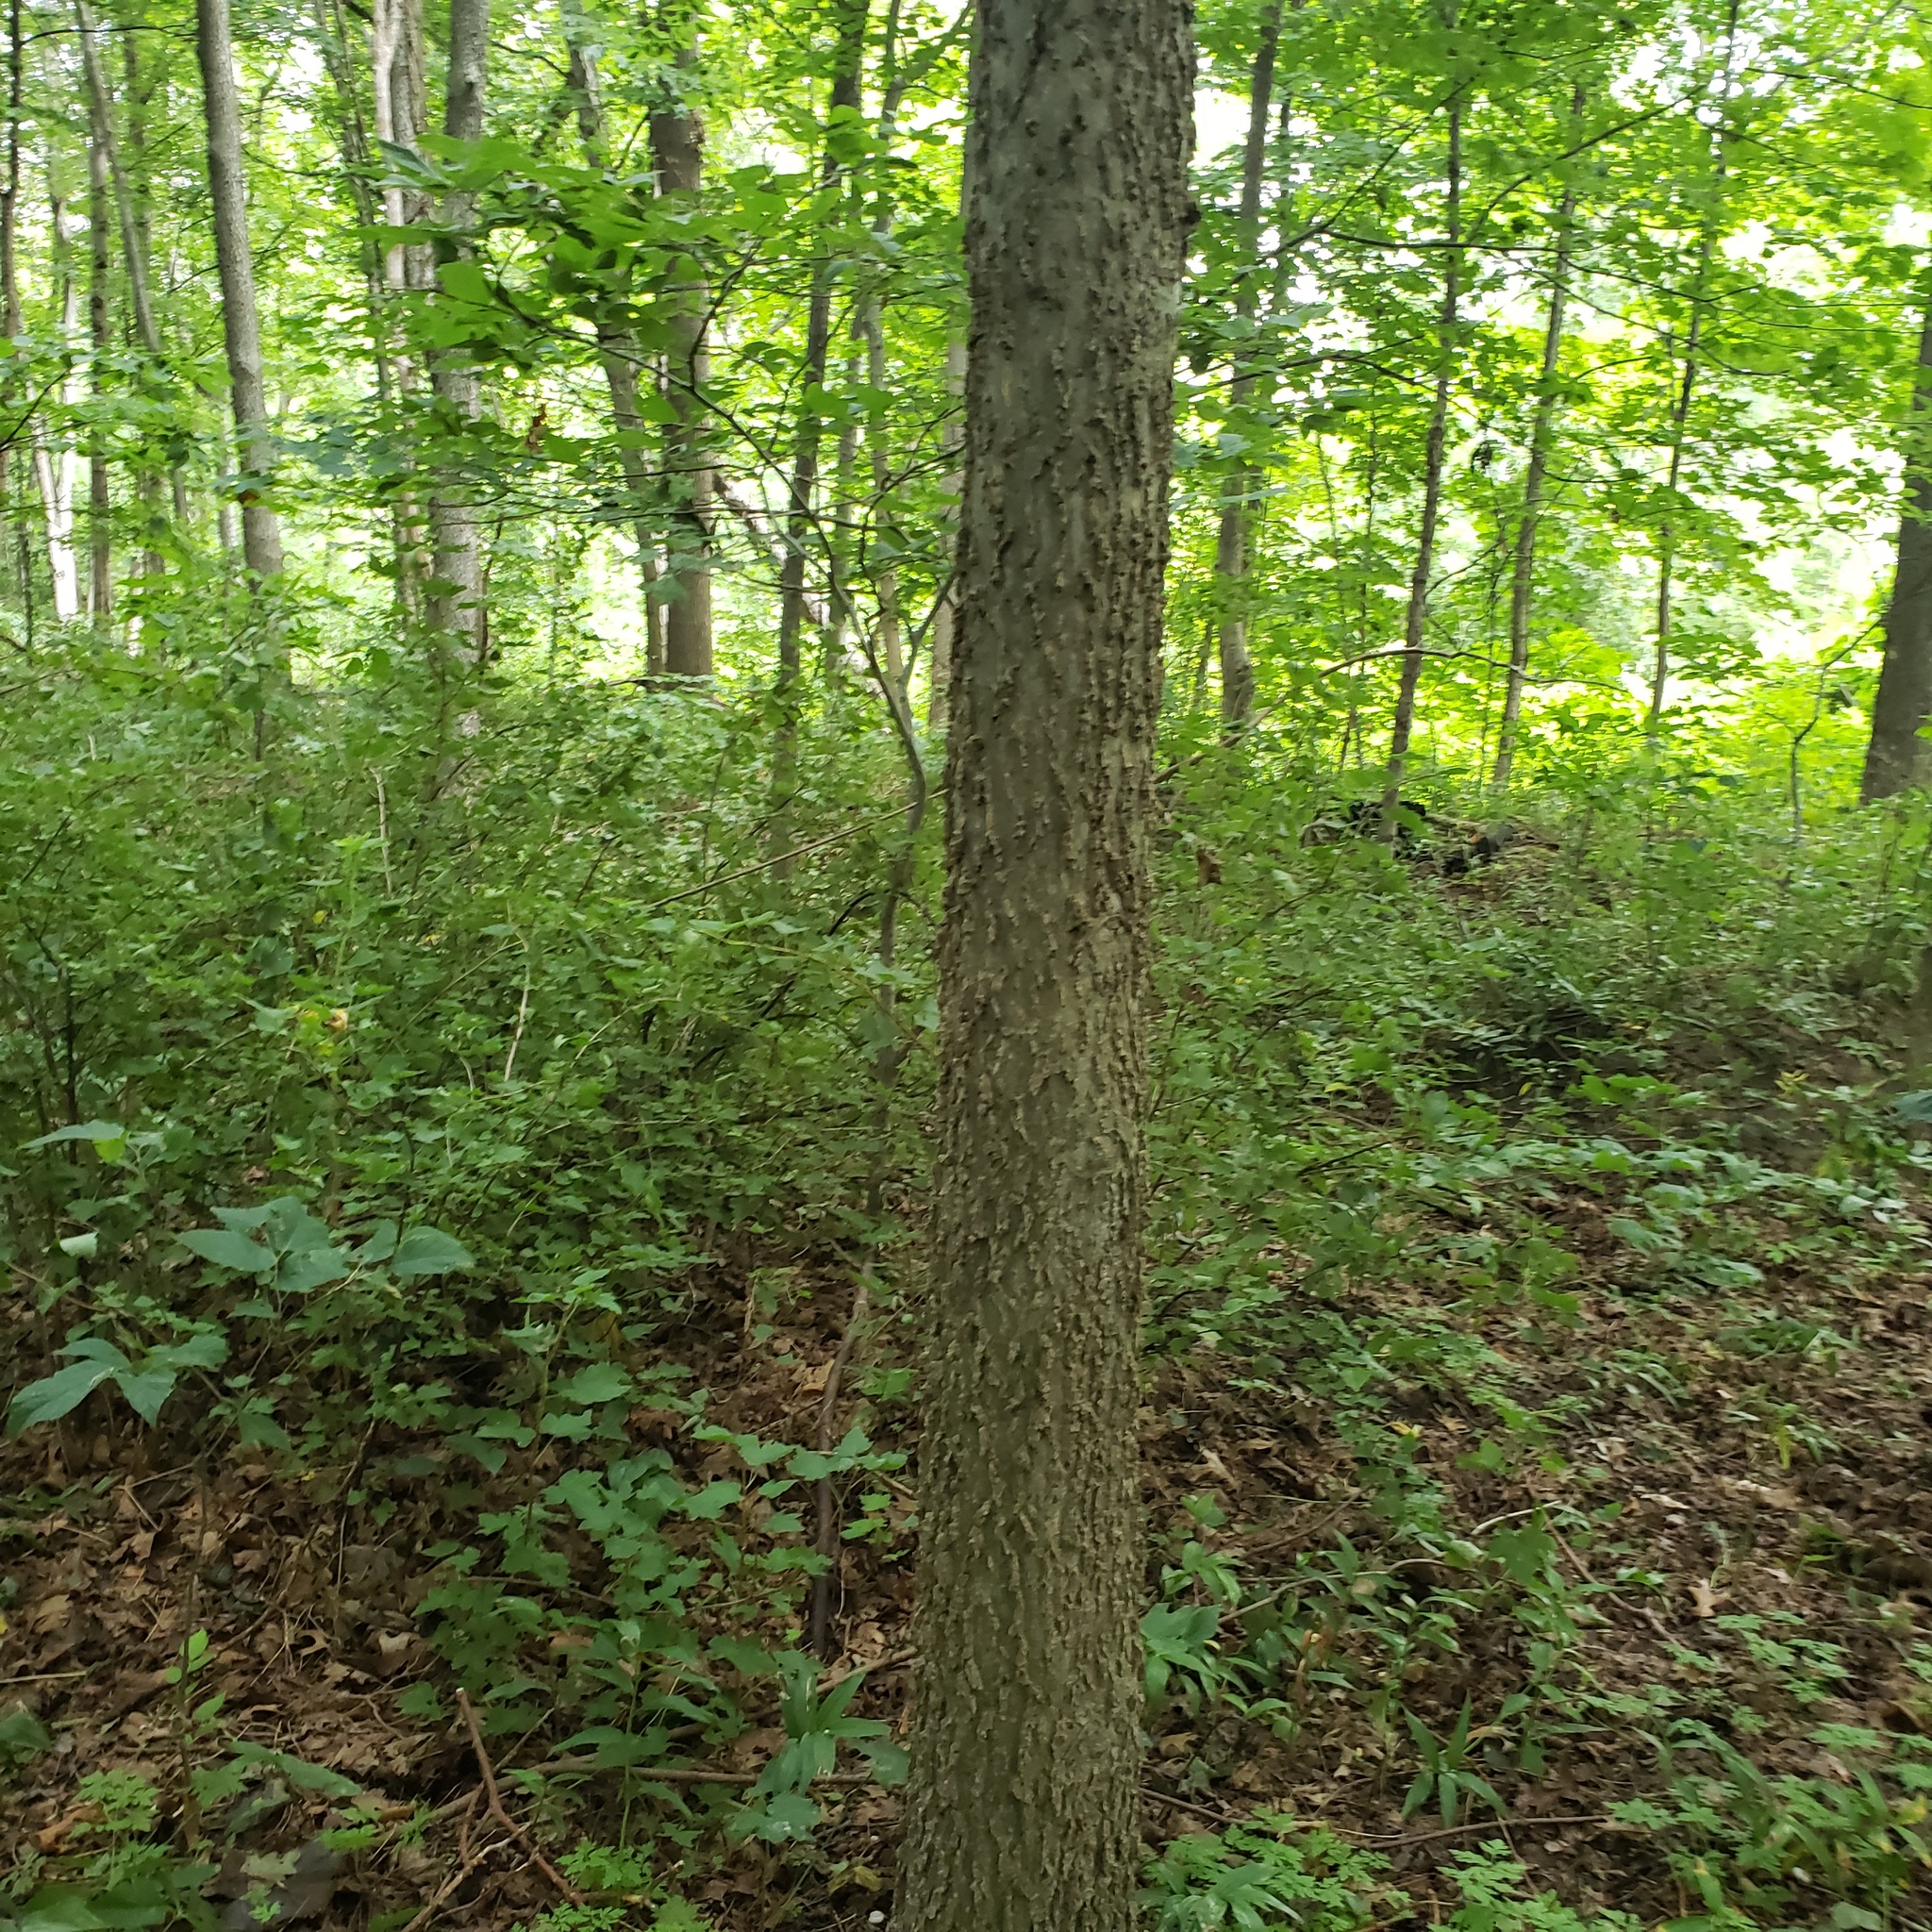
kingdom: Plantae
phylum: Tracheophyta
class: Magnoliopsida
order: Rosales
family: Cannabaceae
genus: Celtis
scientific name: Celtis occidentalis
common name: Common hackberry
